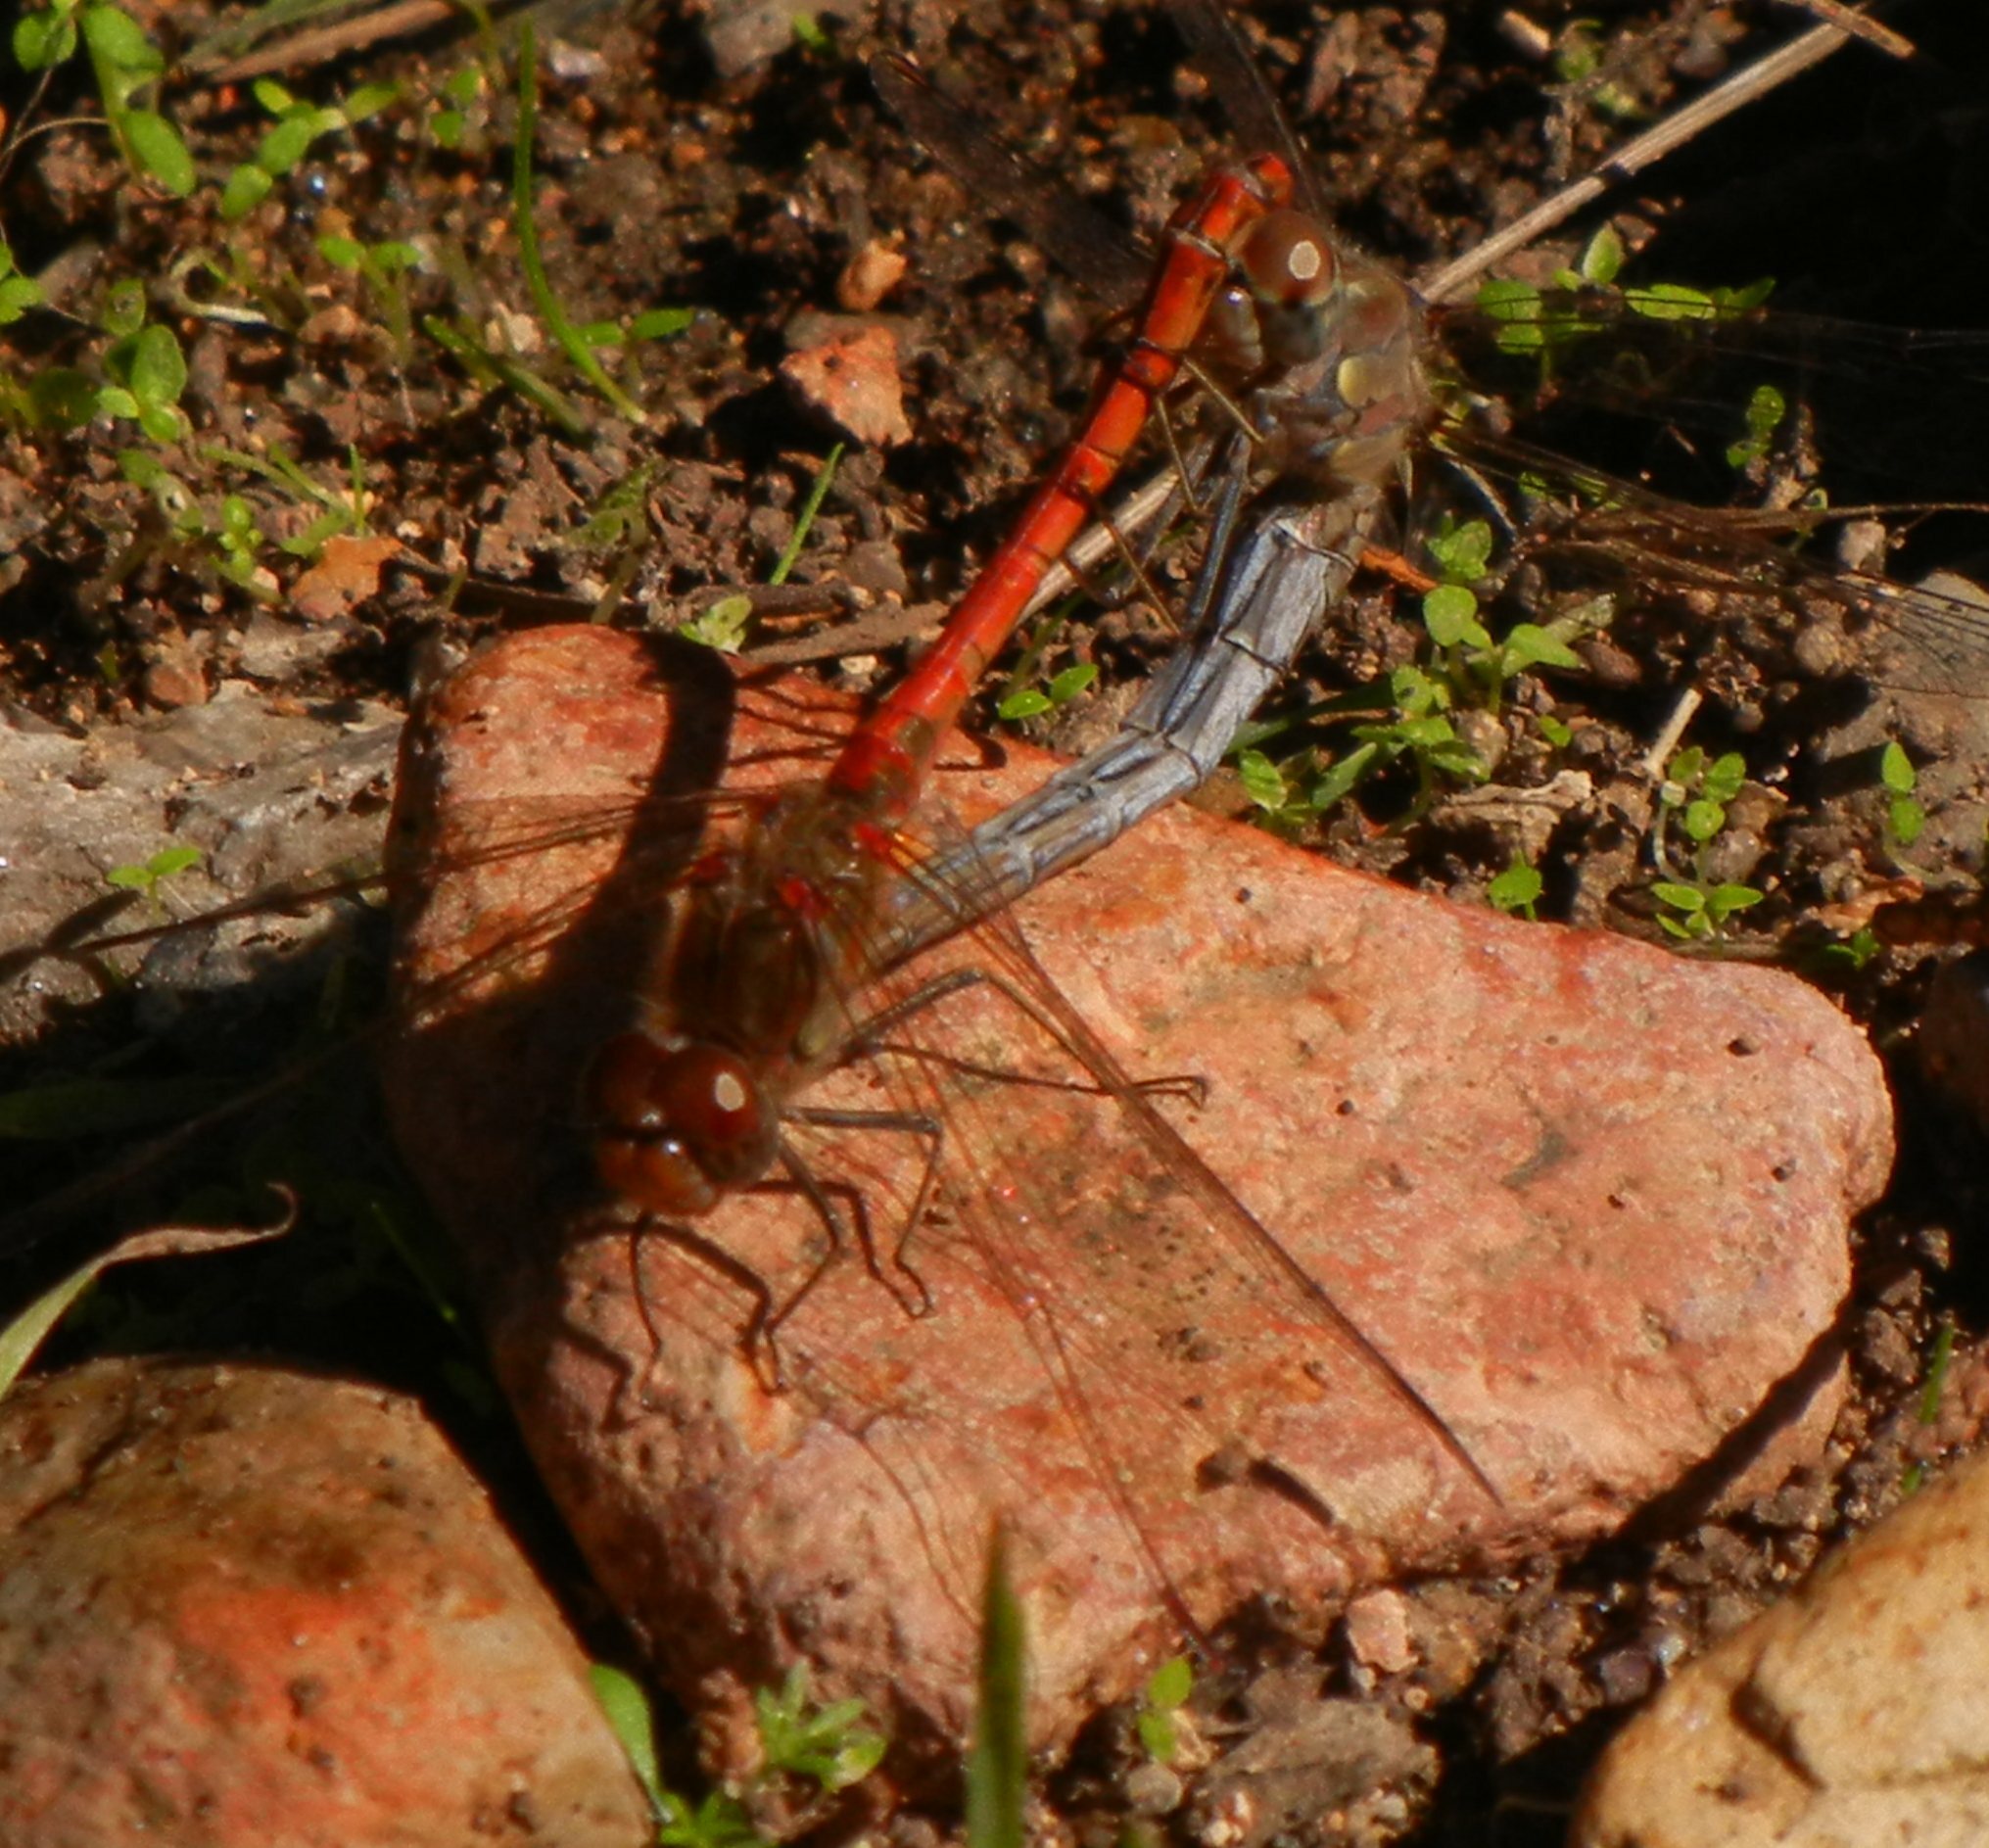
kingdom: Animalia
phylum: Arthropoda
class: Insecta
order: Odonata
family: Libellulidae
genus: Sympetrum
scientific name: Sympetrum striolatum
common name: Common darter
